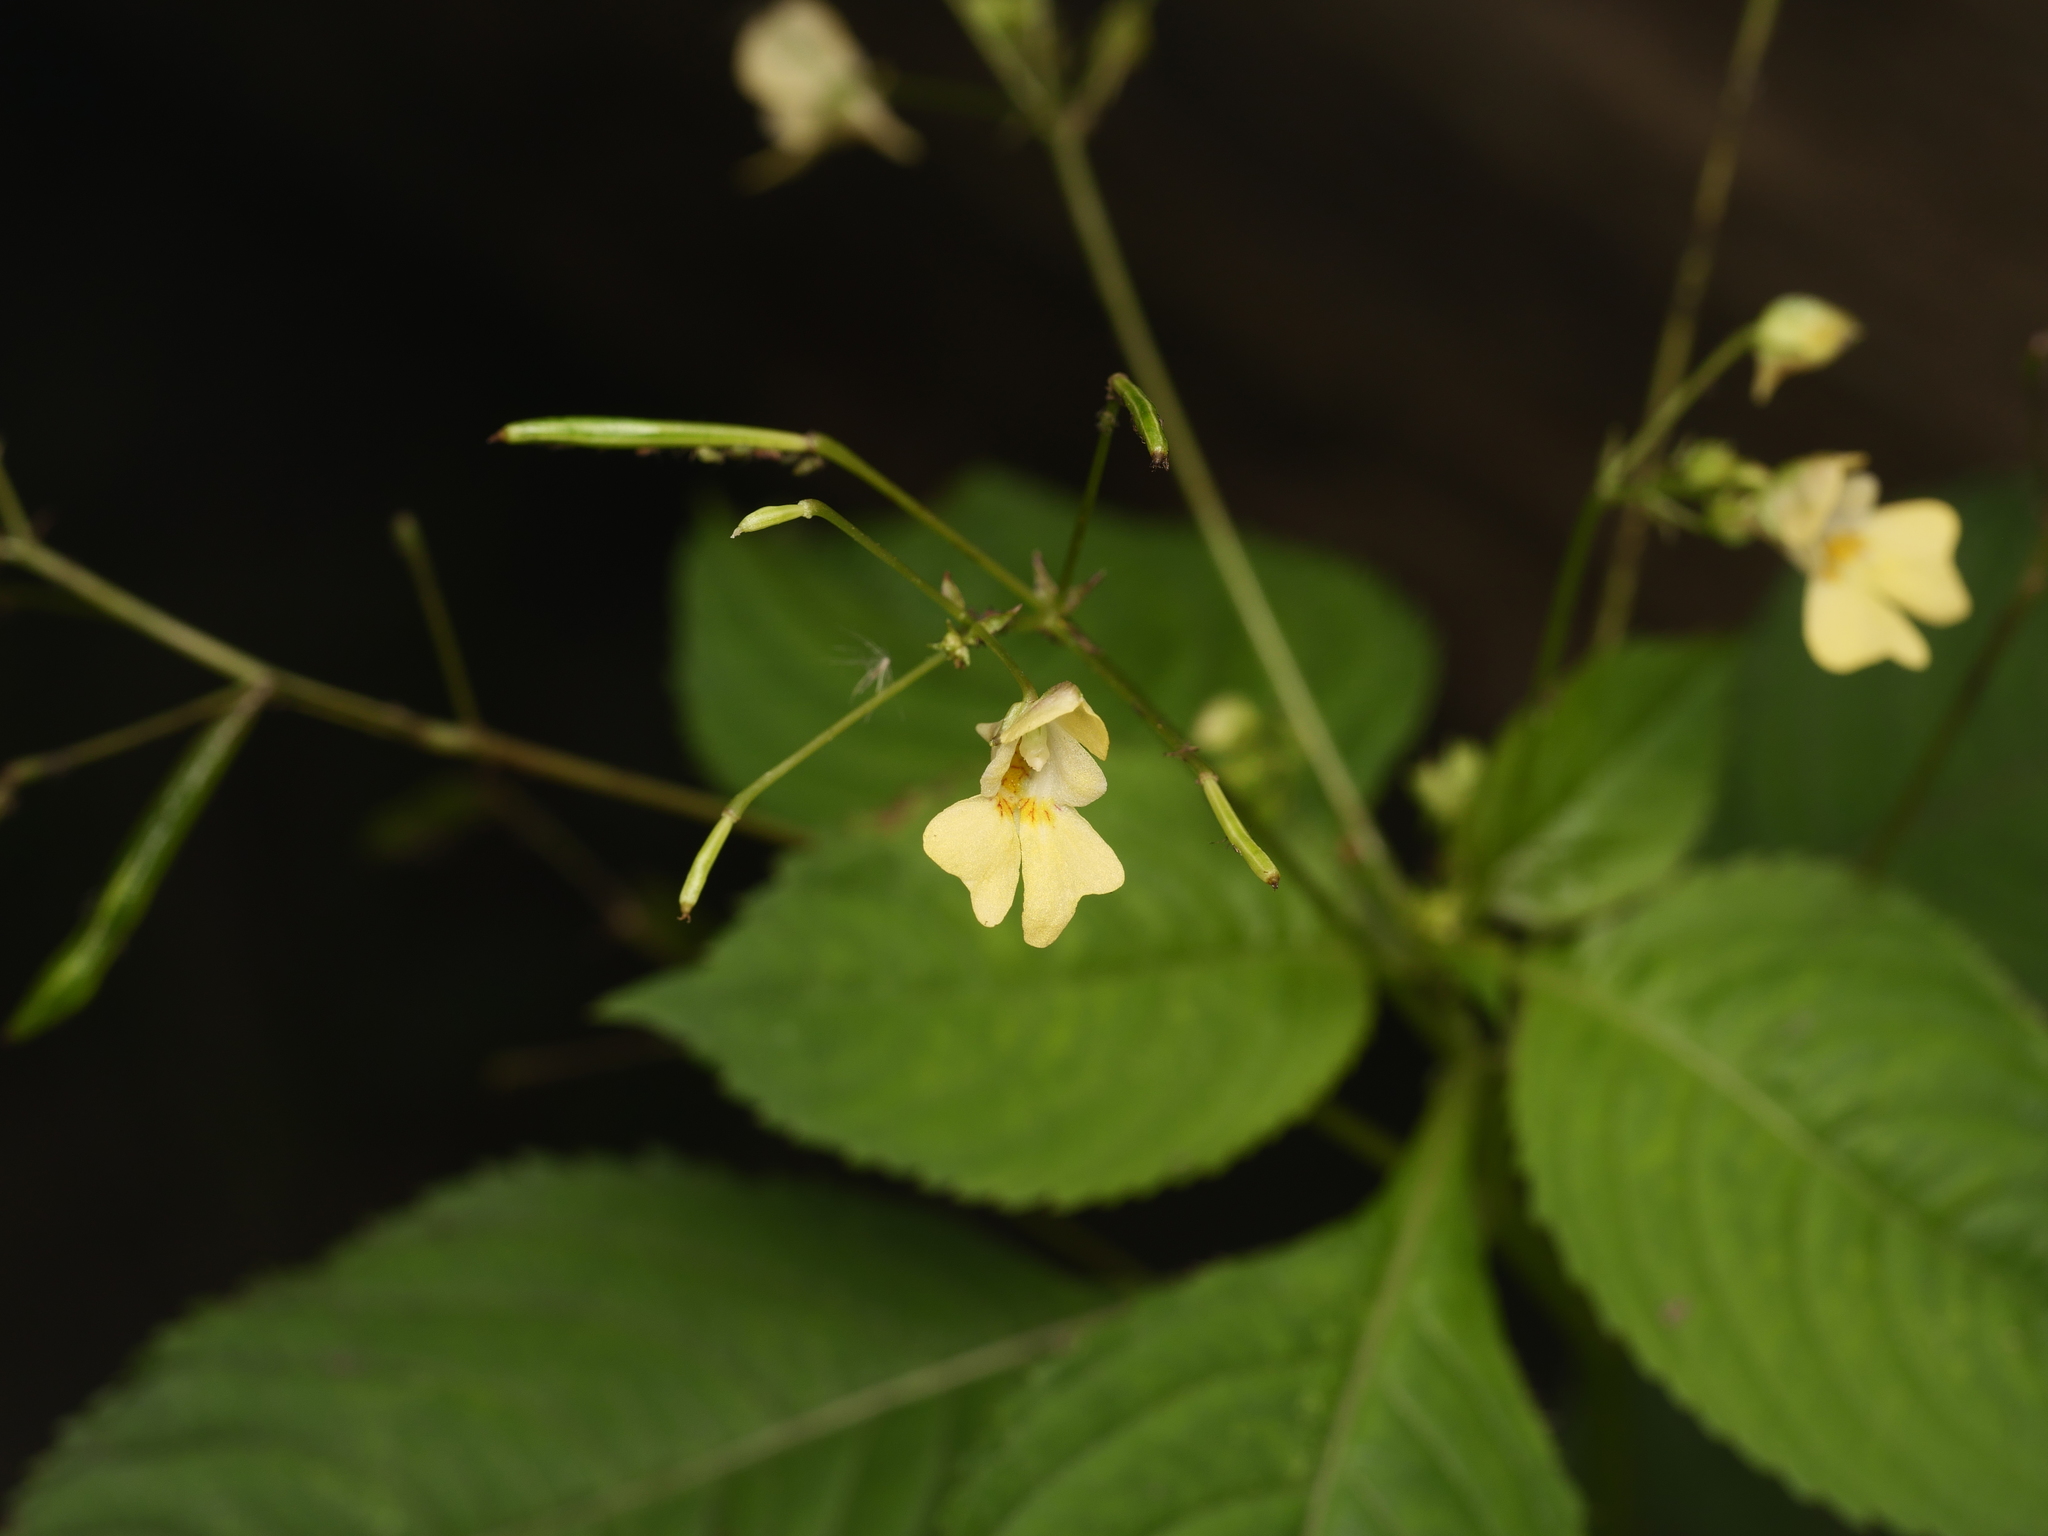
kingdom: Plantae
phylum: Tracheophyta
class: Magnoliopsida
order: Ericales
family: Balsaminaceae
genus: Impatiens
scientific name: Impatiens parviflora
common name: Small balsam
